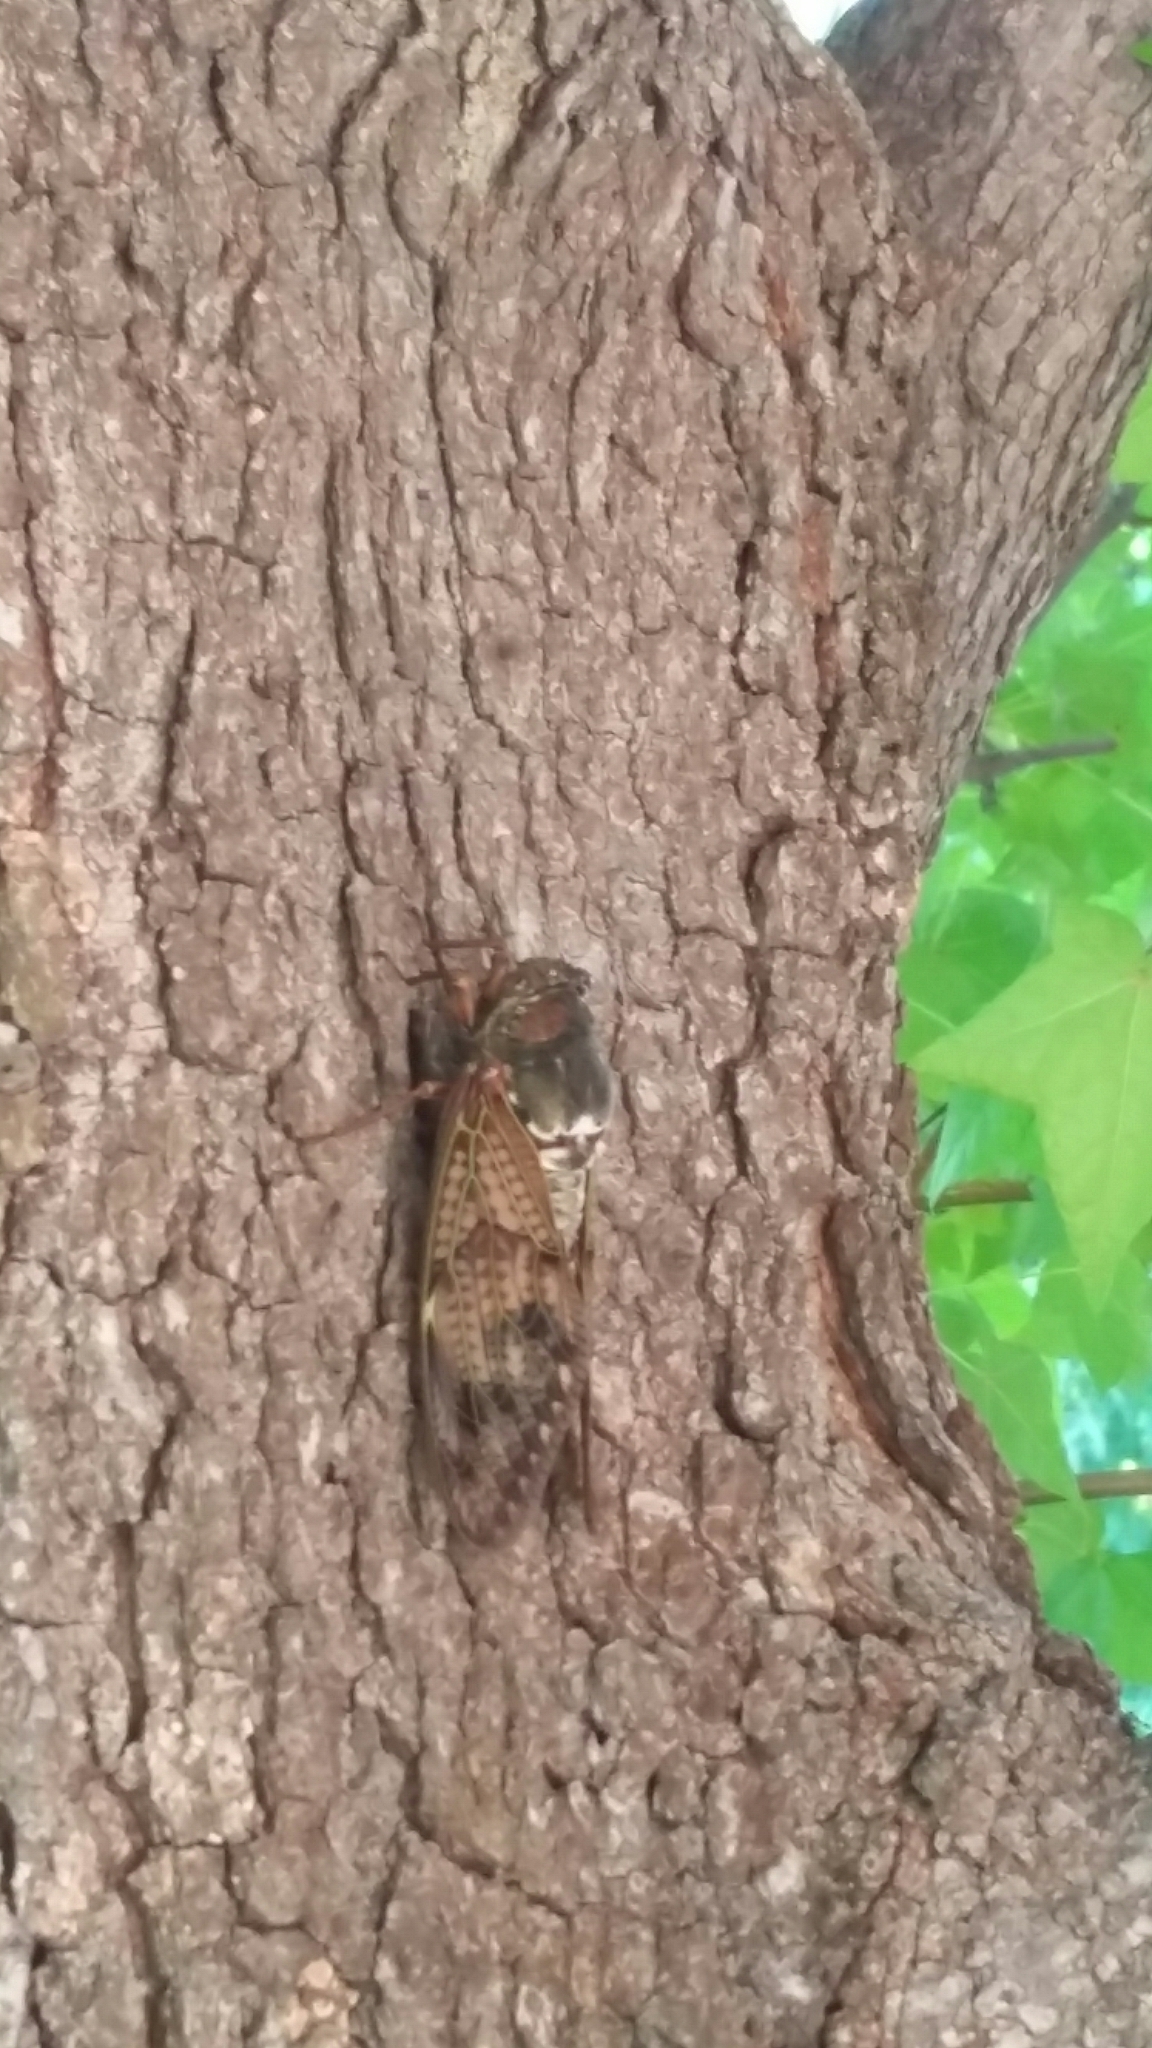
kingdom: Animalia
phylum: Arthropoda
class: Insecta
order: Hemiptera
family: Cicadidae
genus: Graptopsaltria
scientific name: Graptopsaltria nigrofuscata
